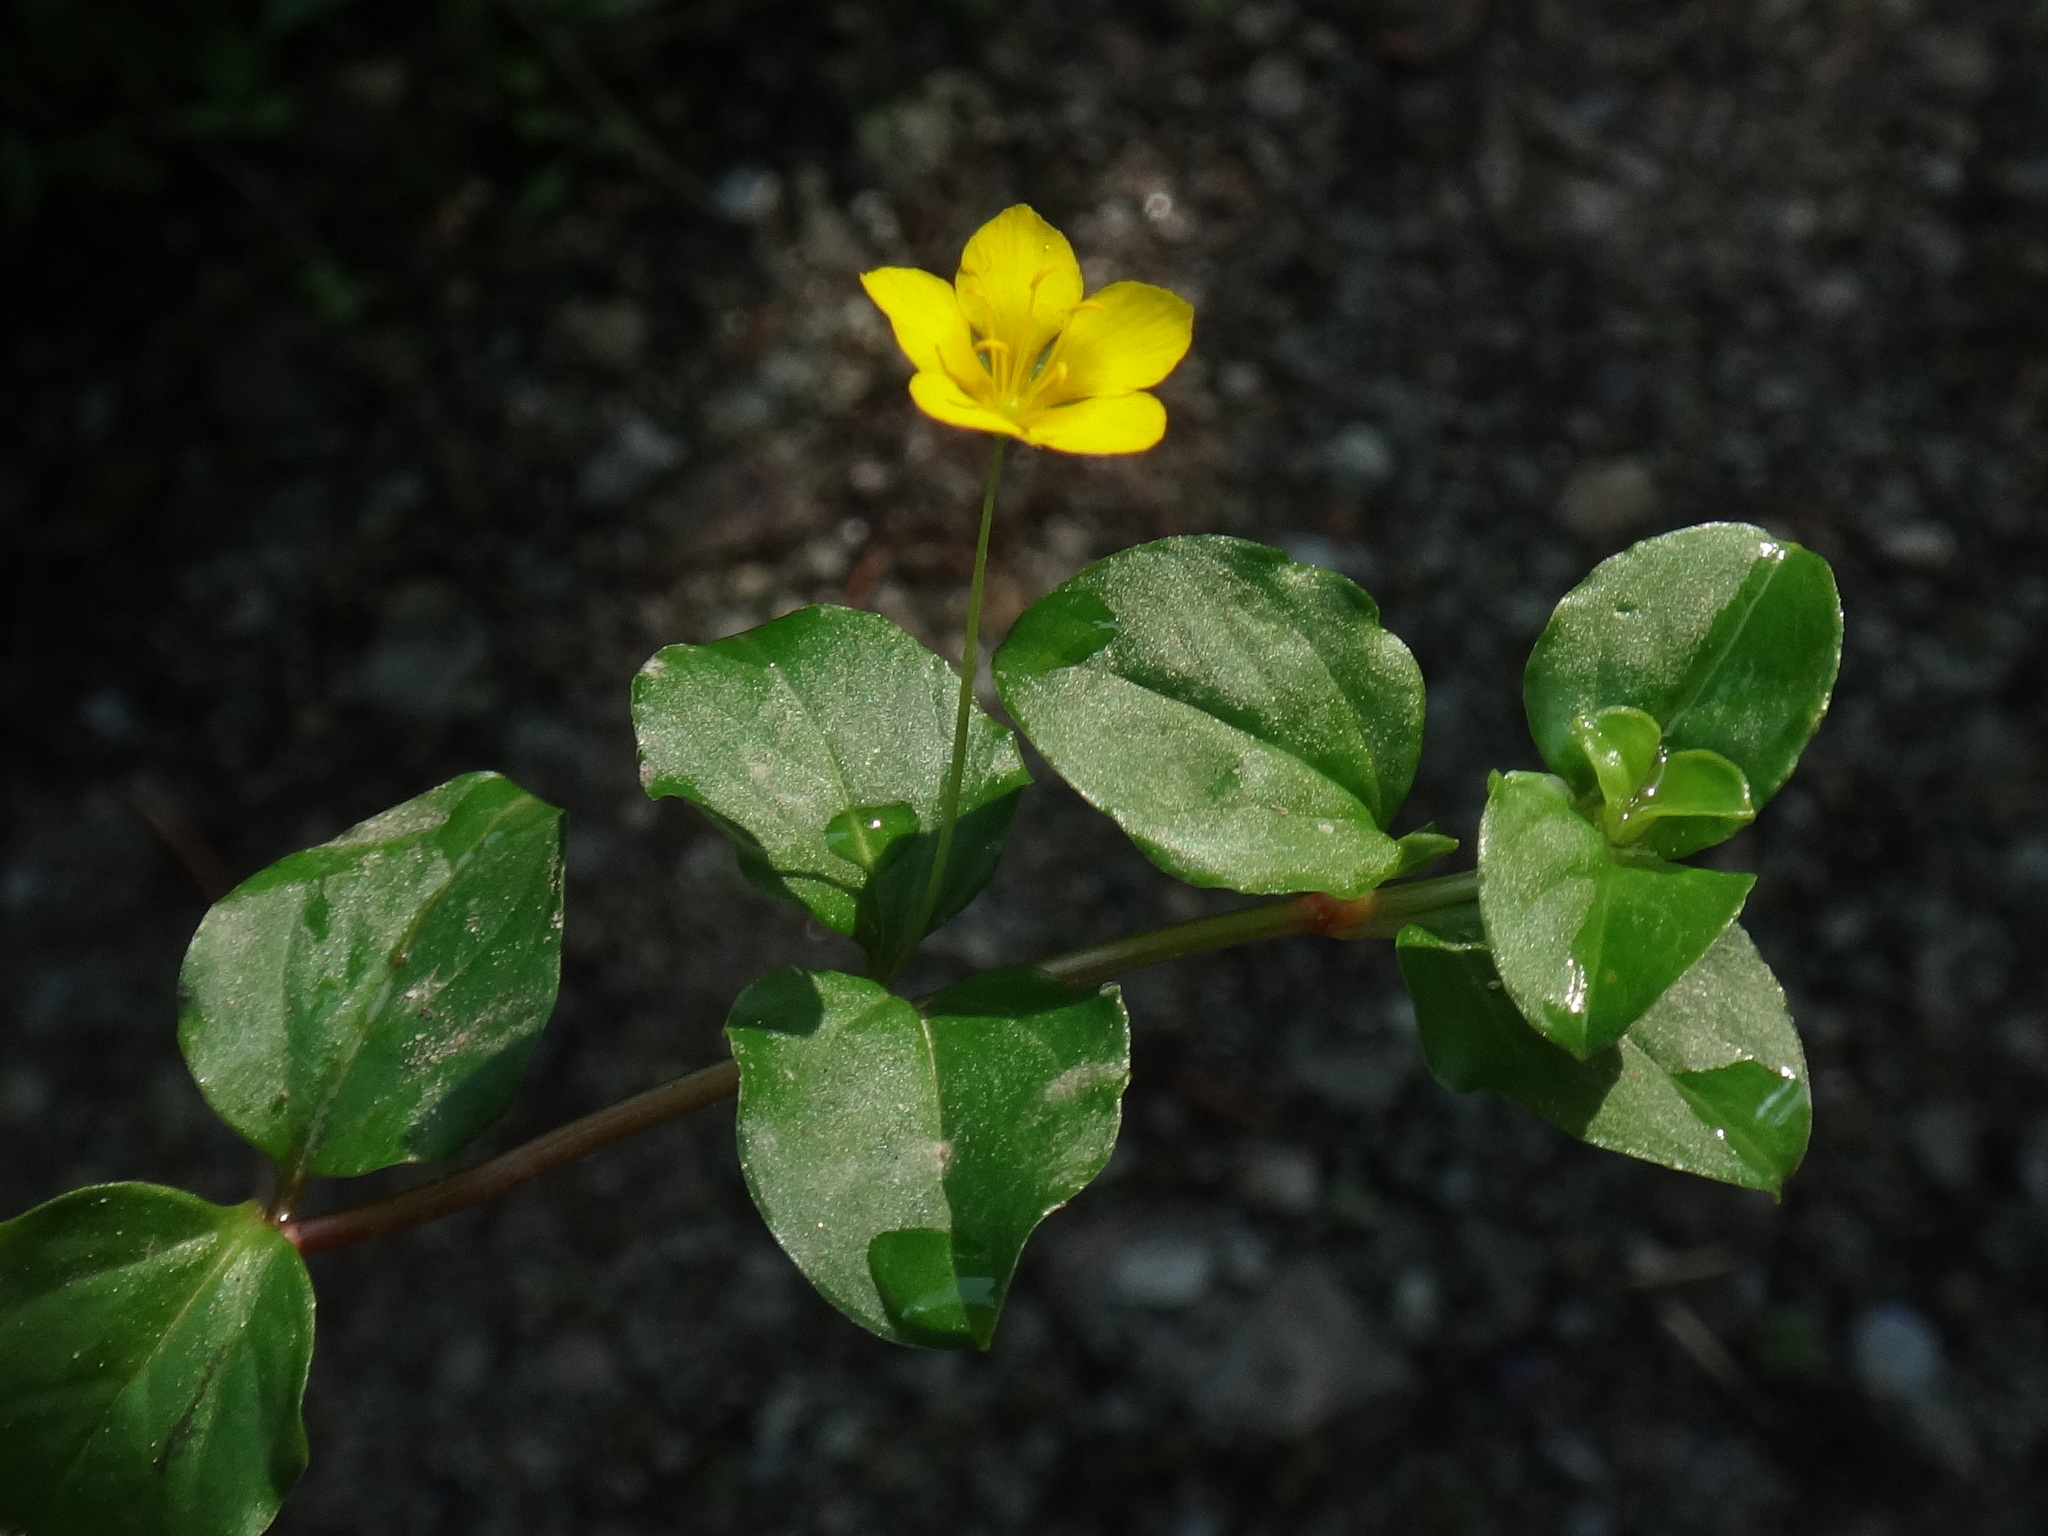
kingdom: Plantae
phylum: Tracheophyta
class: Magnoliopsida
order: Ericales
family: Primulaceae
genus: Lysimachia
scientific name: Lysimachia nemorum
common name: Yellow pimpernel
